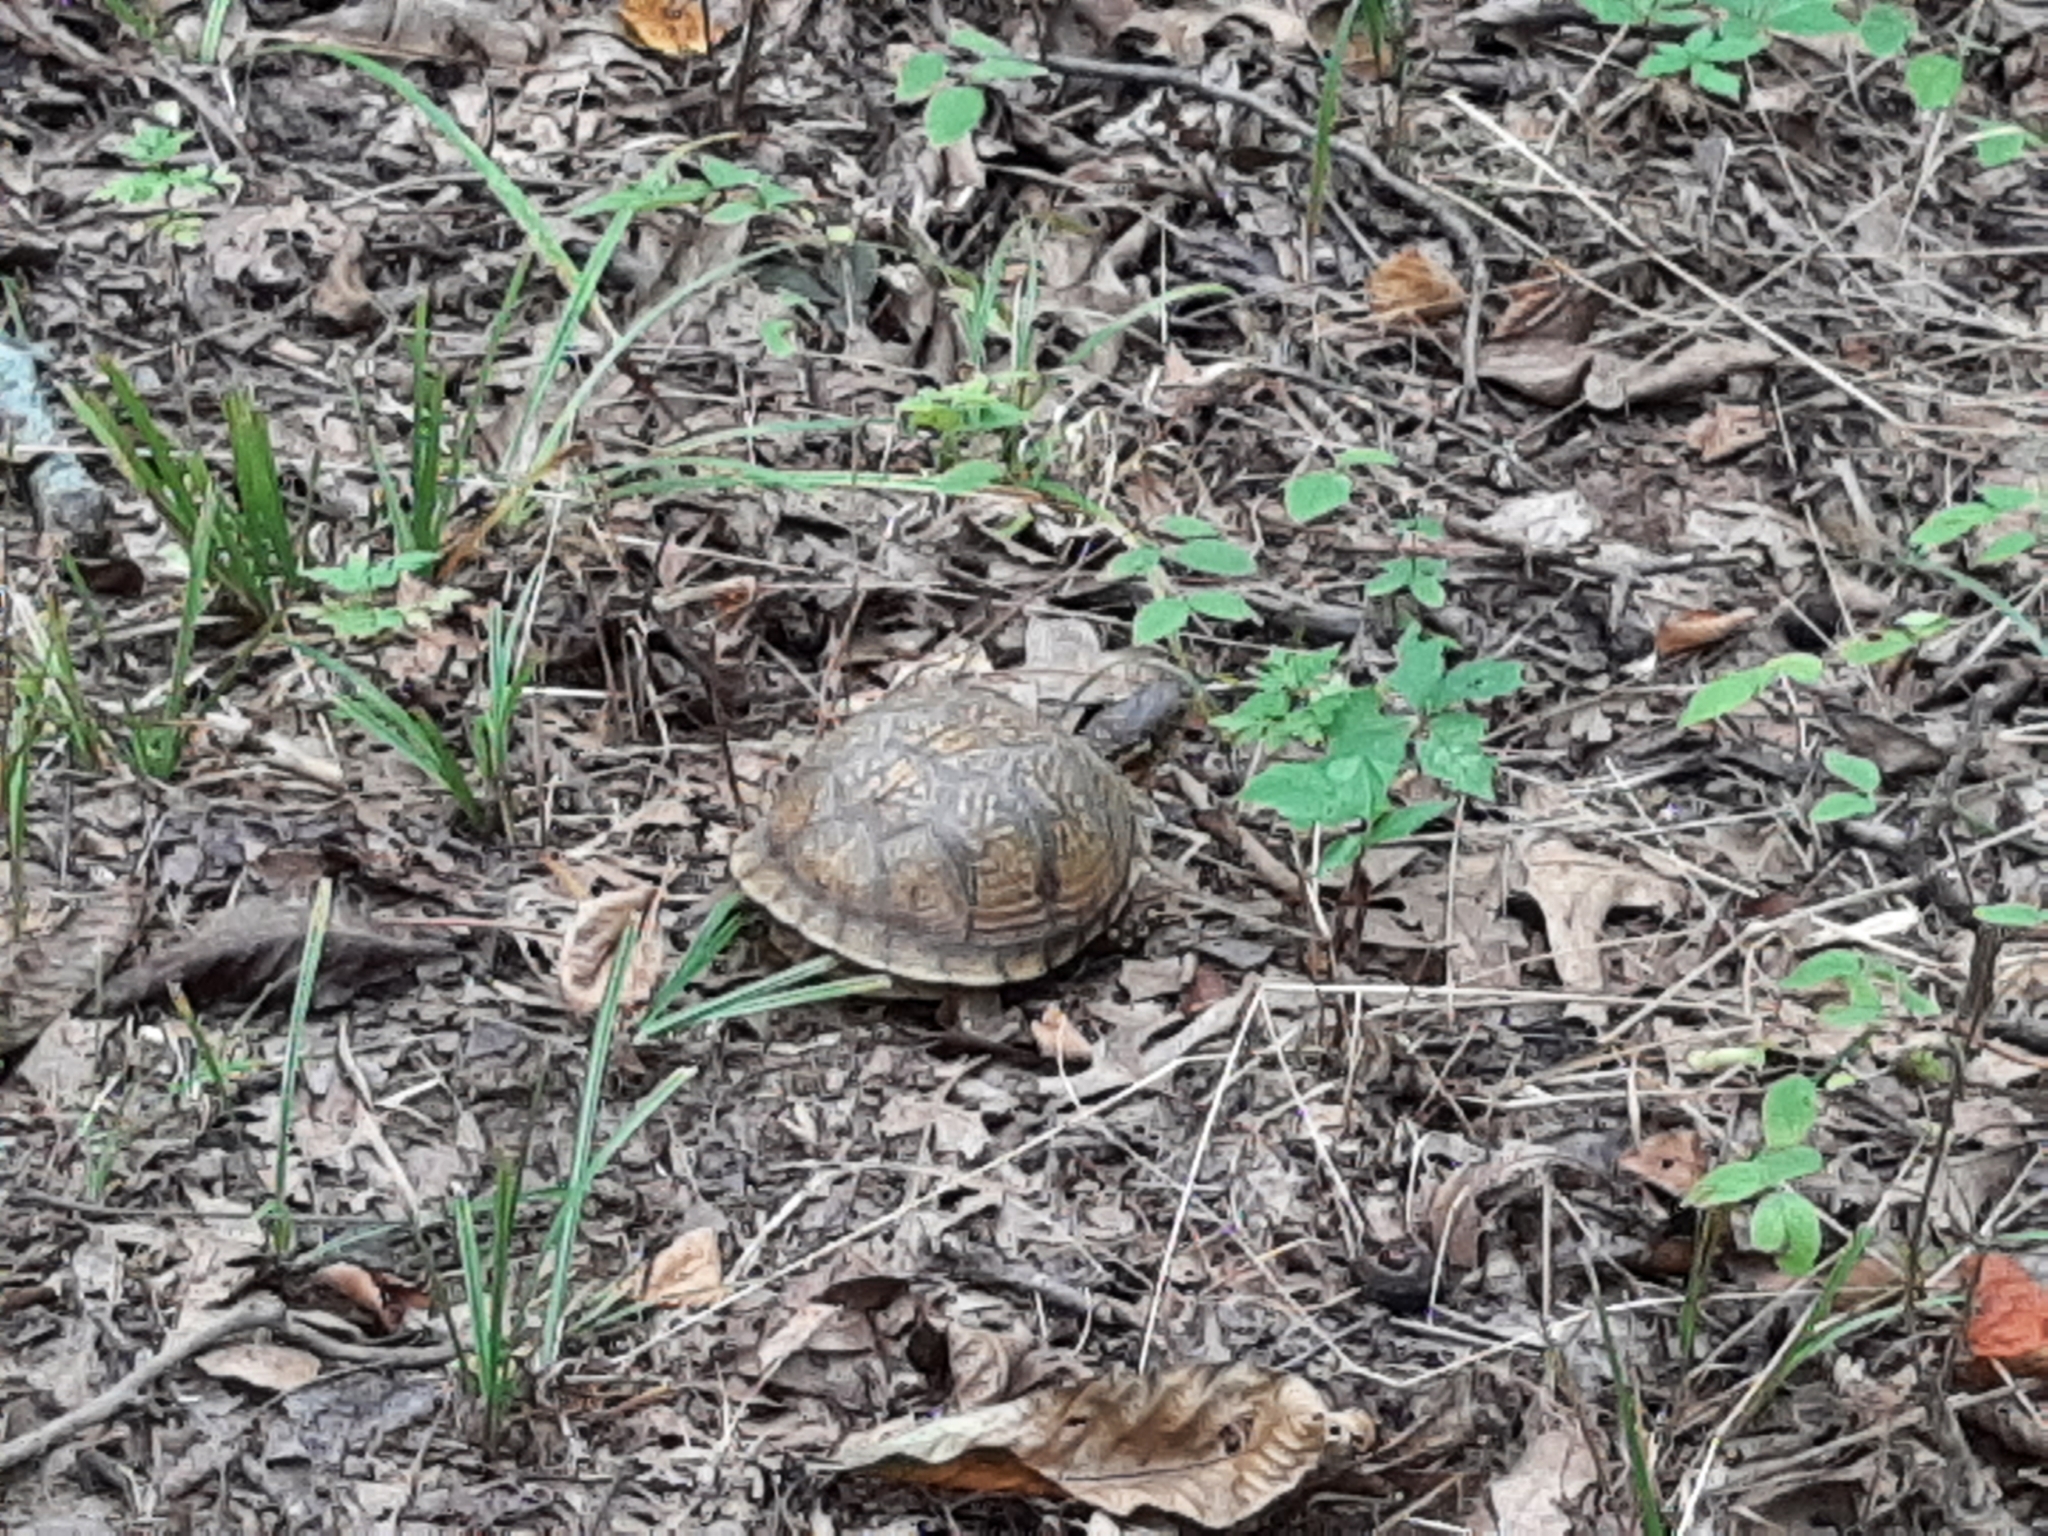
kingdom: Animalia
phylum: Chordata
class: Testudines
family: Emydidae
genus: Terrapene
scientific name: Terrapene carolina
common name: Common box turtle
